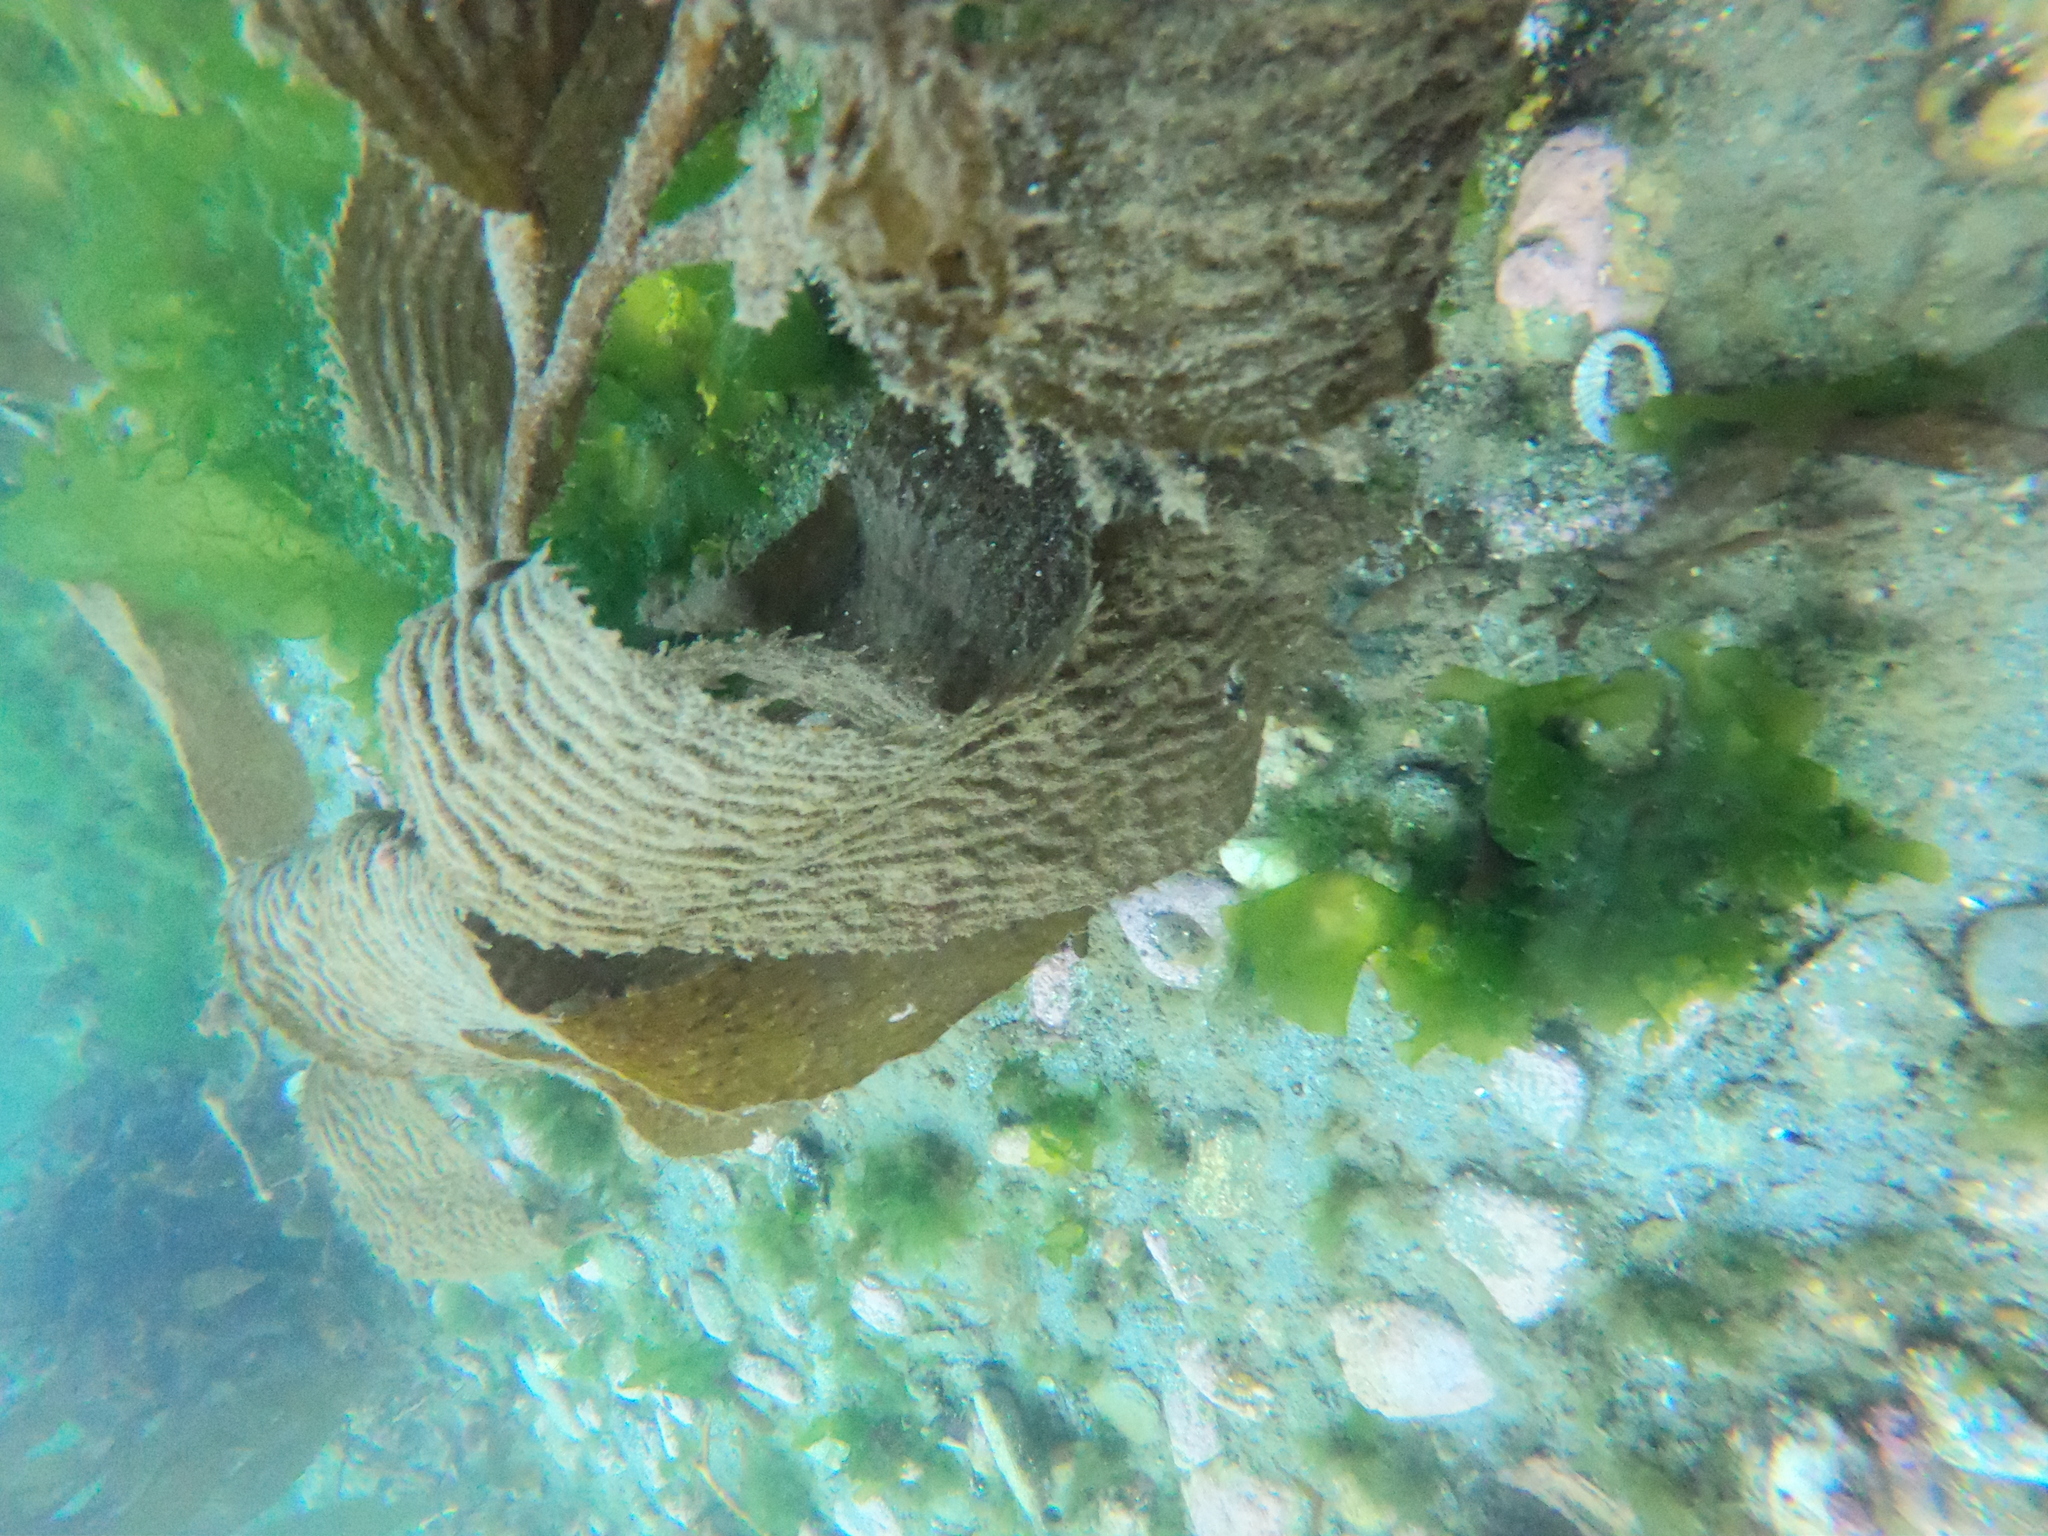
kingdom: Chromista
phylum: Ochrophyta
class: Phaeophyceae
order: Laminariales
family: Laminariaceae
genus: Macrocystis
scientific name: Macrocystis pyrifera
